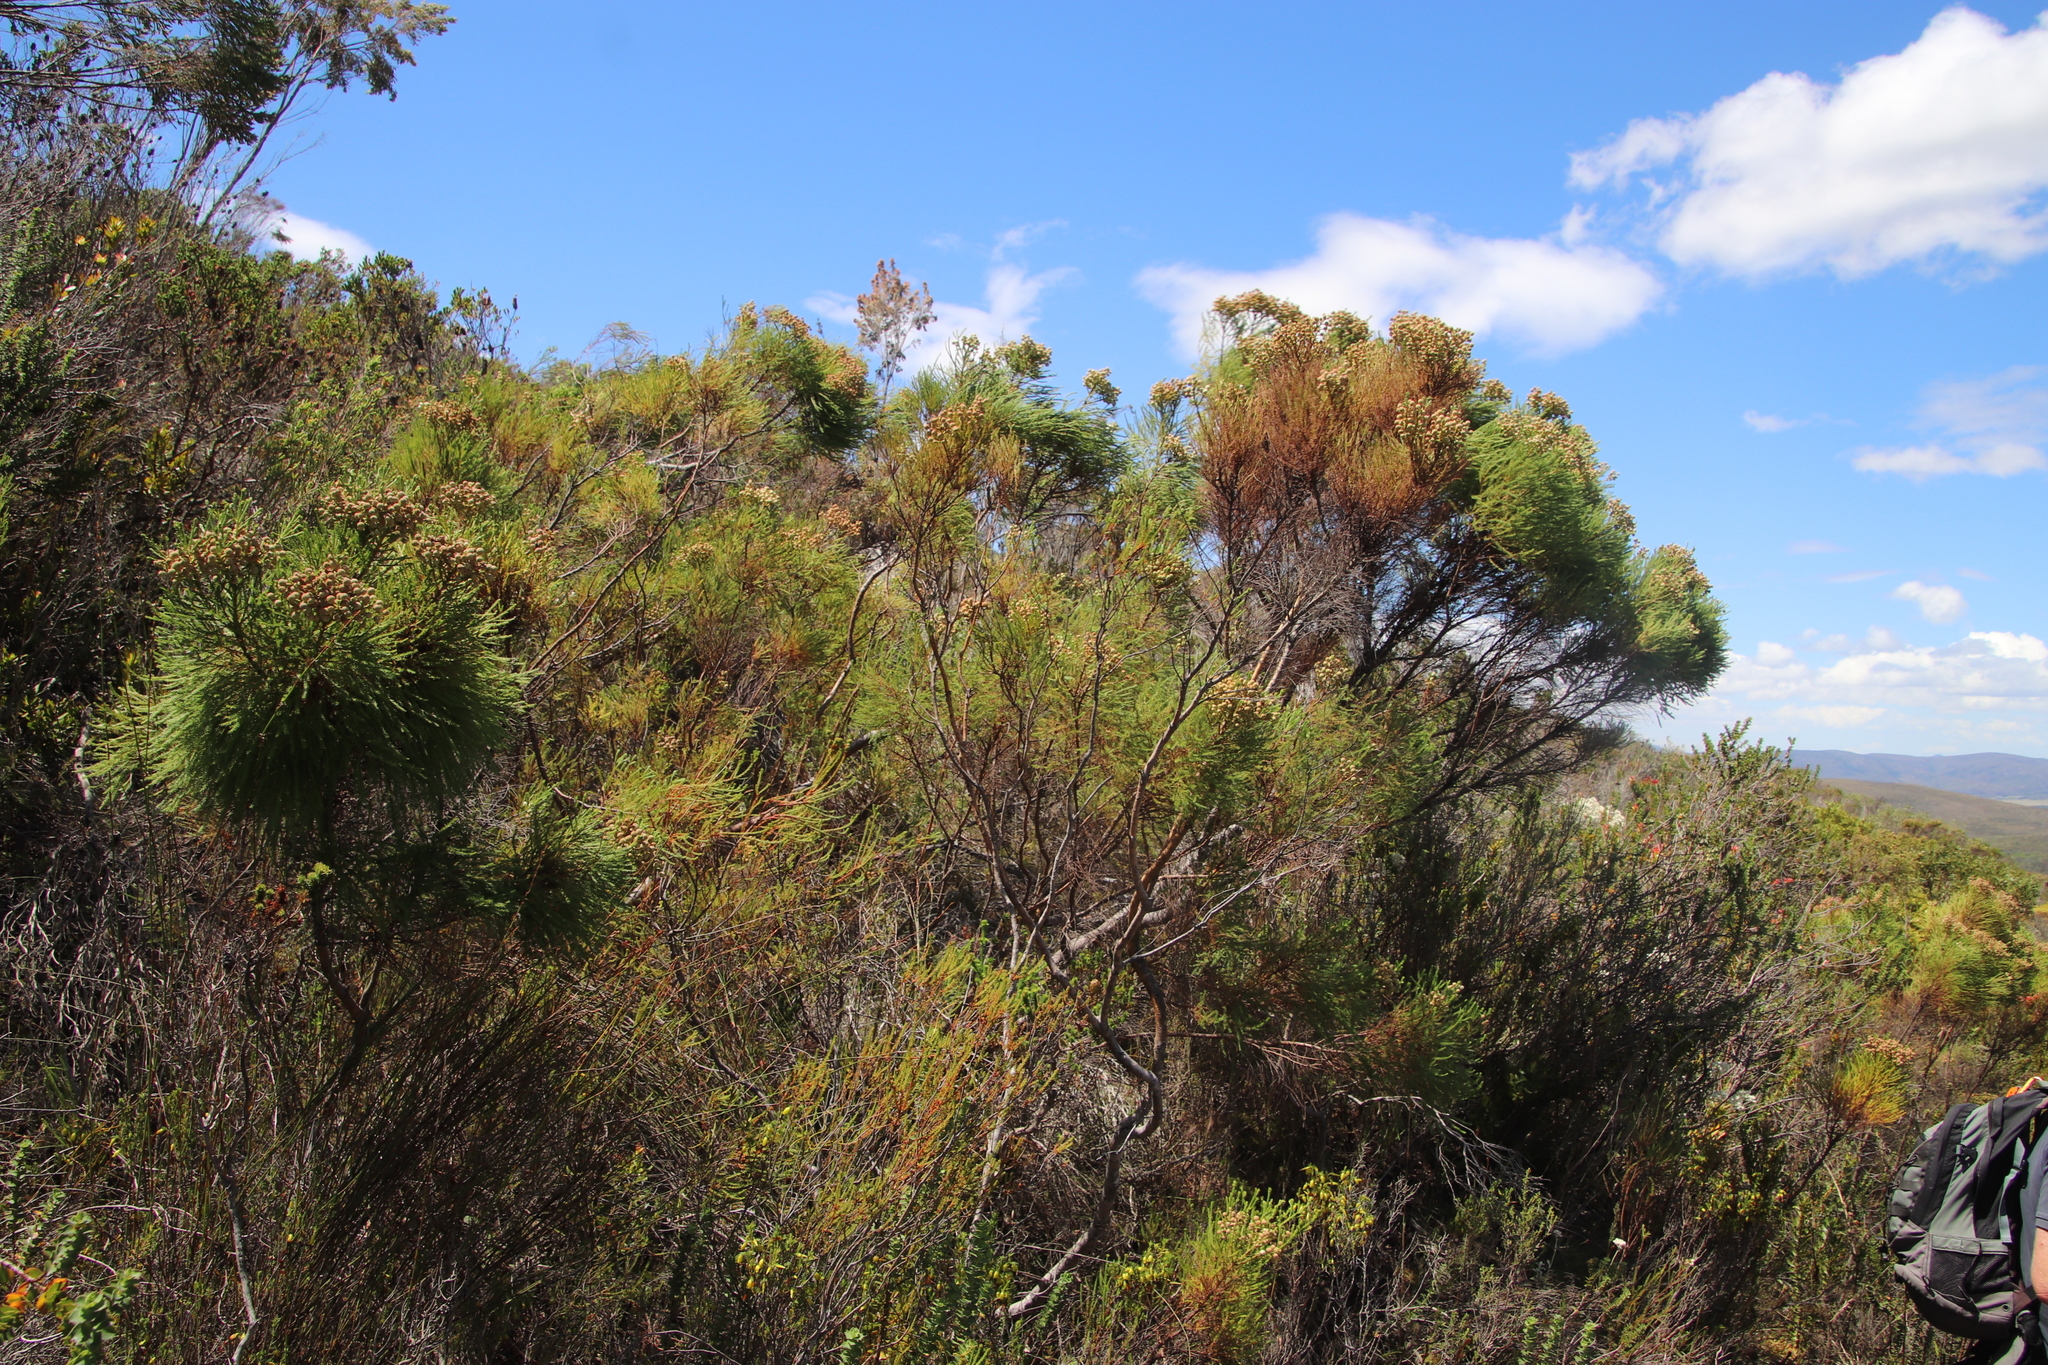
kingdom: Plantae
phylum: Tracheophyta
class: Magnoliopsida
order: Bruniales
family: Bruniaceae
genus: Berzelia
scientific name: Berzelia lanuginosa
